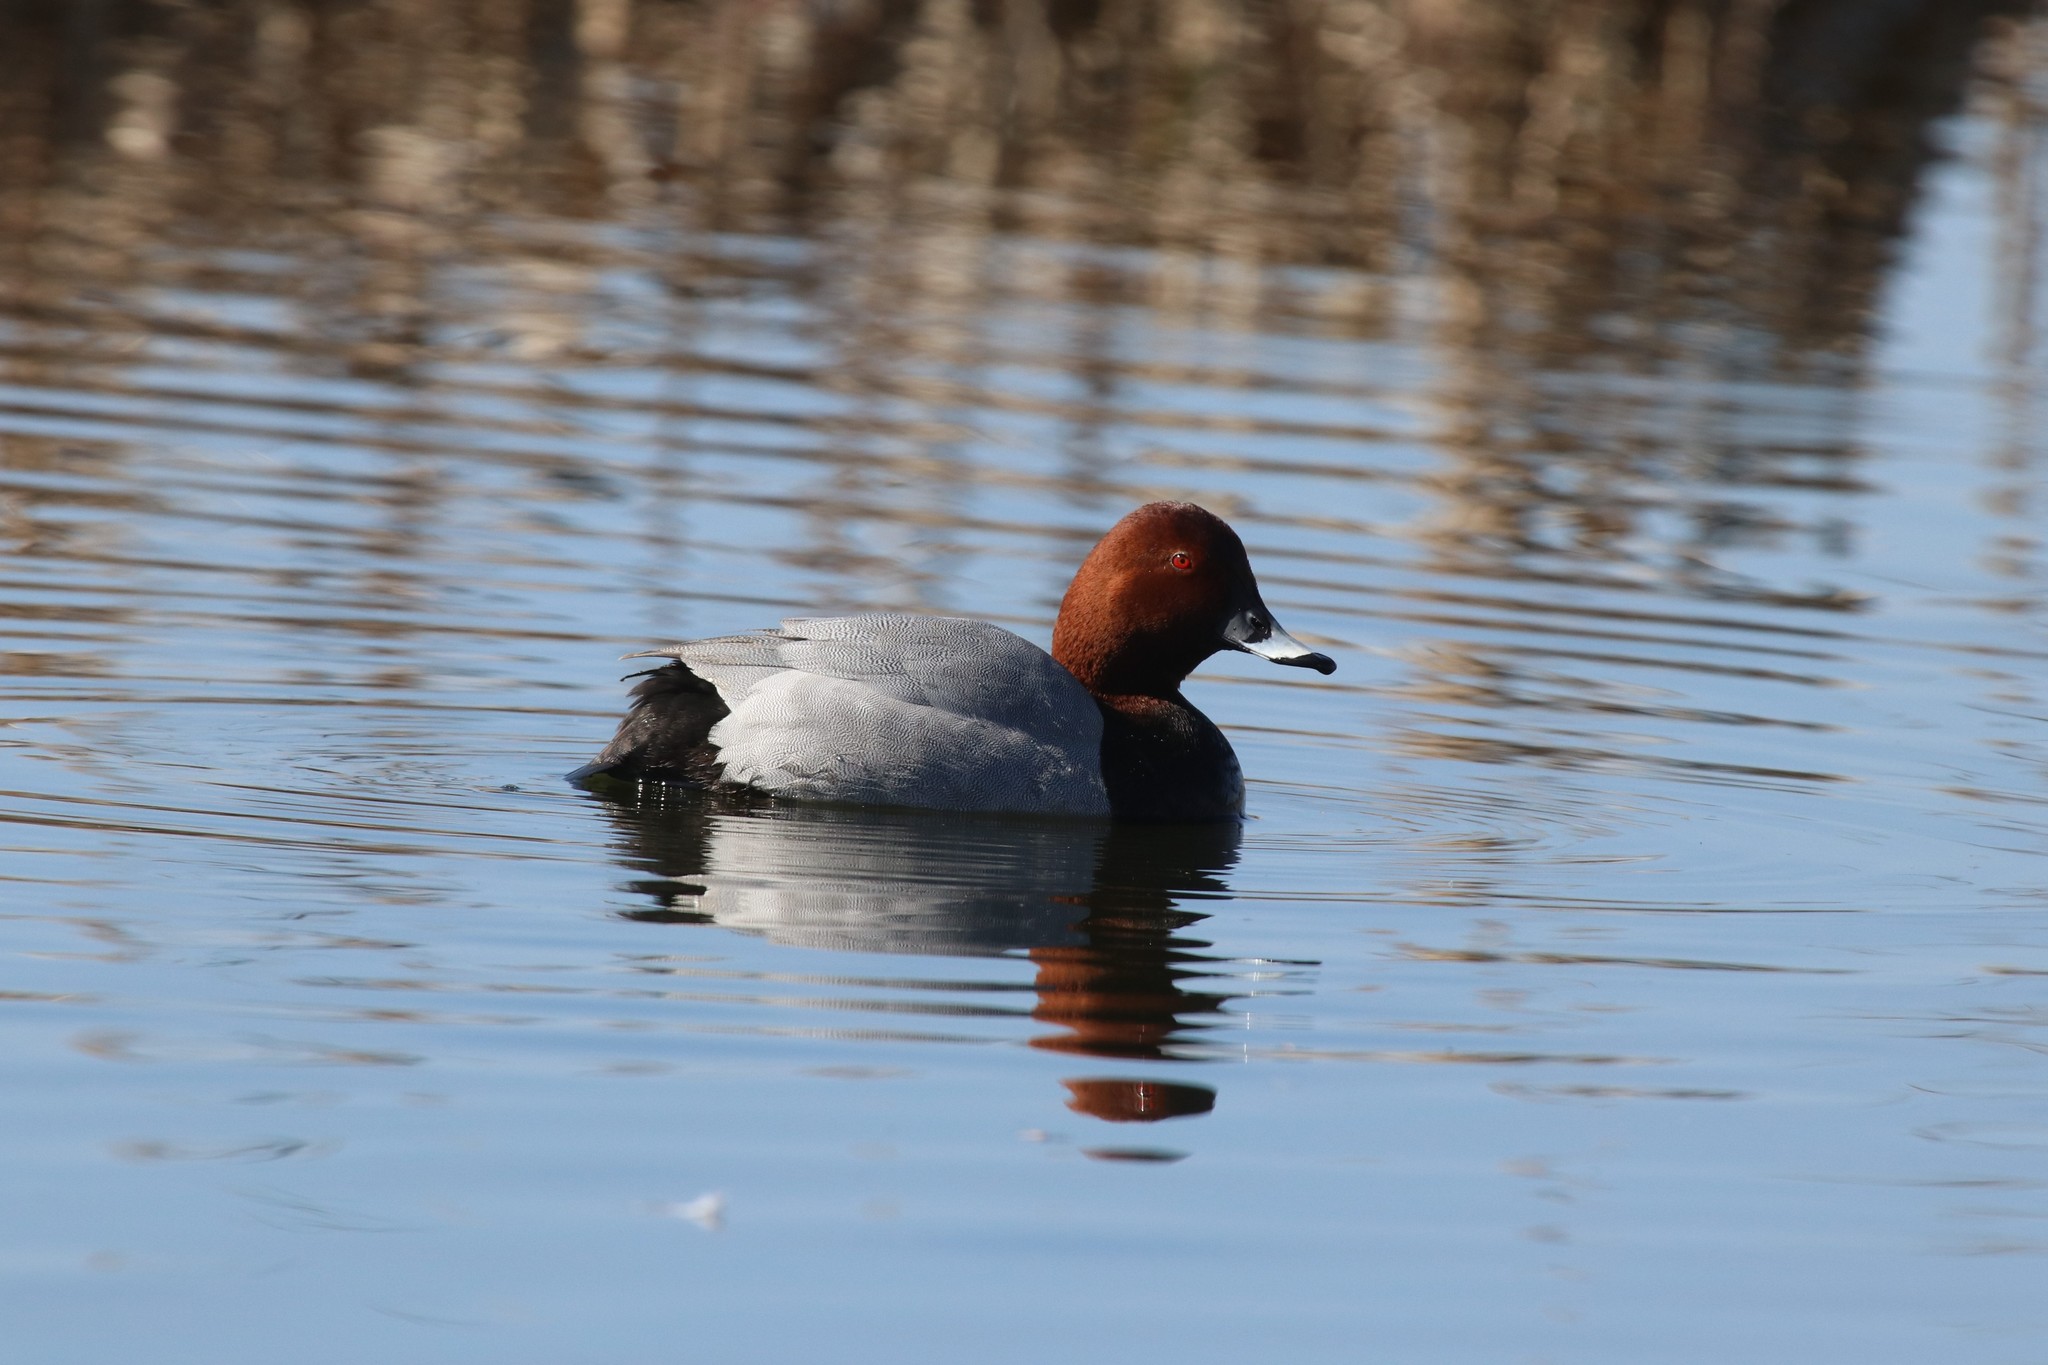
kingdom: Animalia
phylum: Chordata
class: Aves
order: Anseriformes
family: Anatidae
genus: Aythya
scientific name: Aythya ferina
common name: Common pochard
